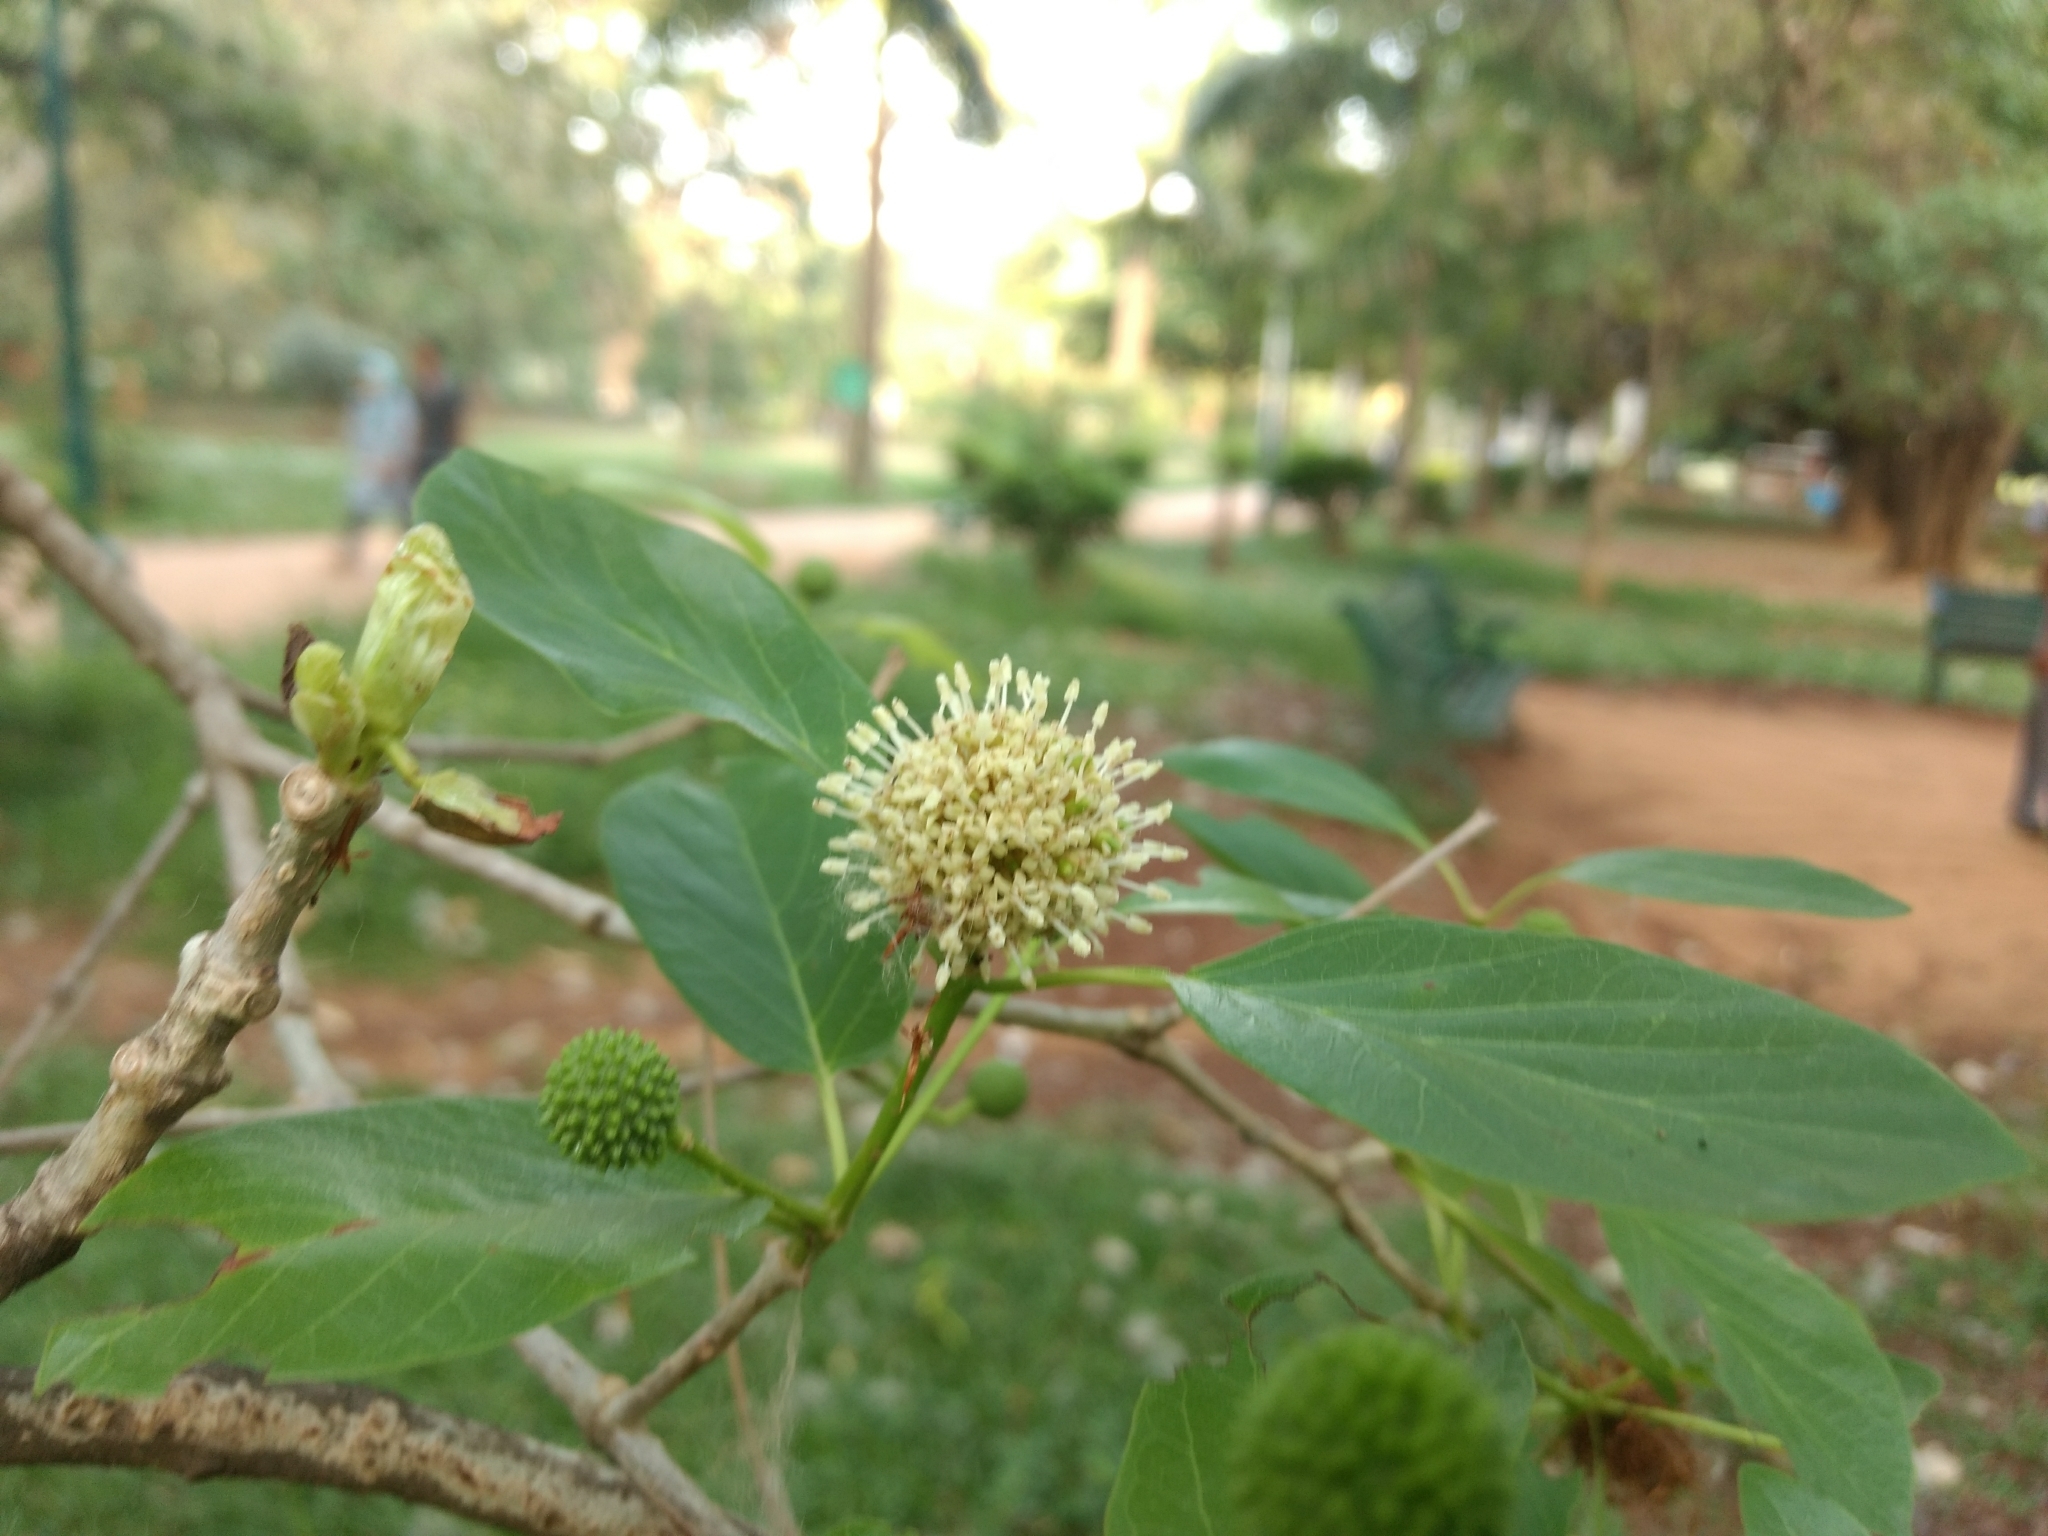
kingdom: Plantae
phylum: Tracheophyta
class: Magnoliopsida
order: Gentianales
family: Rubiaceae
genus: Mitragyna
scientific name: Mitragyna parvifolia
